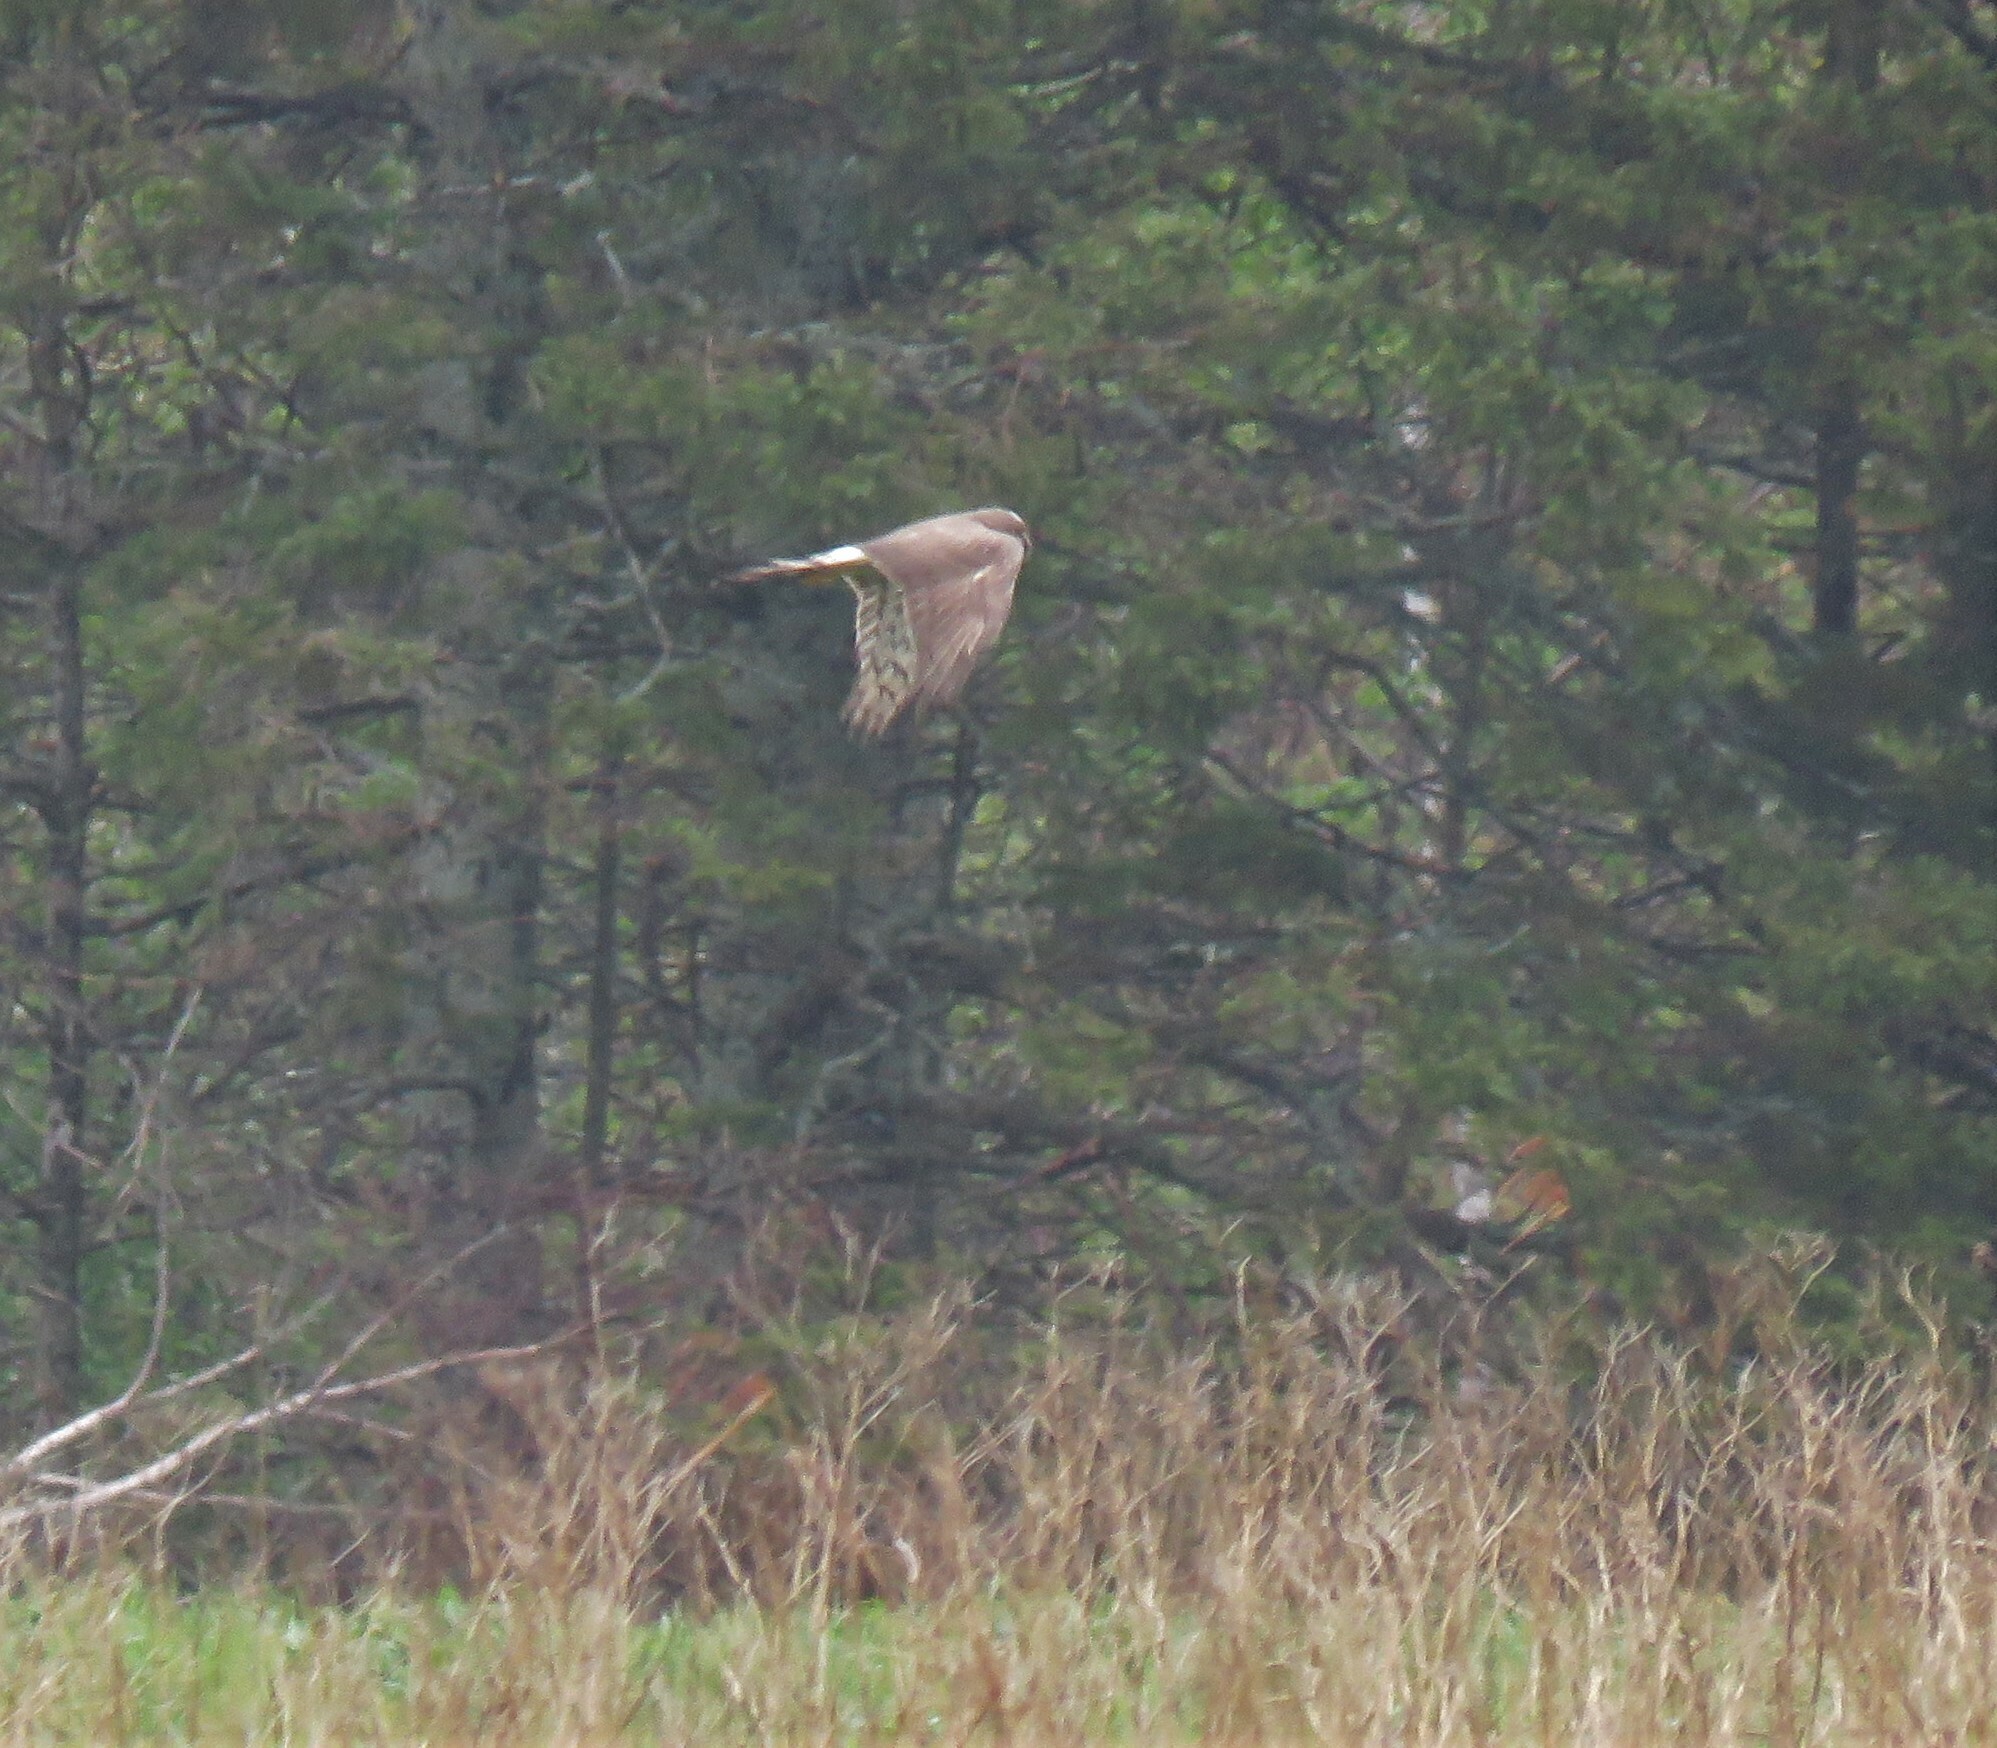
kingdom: Animalia
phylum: Chordata
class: Aves
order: Accipitriformes
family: Accipitridae
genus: Circus
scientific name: Circus cyaneus
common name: Hen harrier
